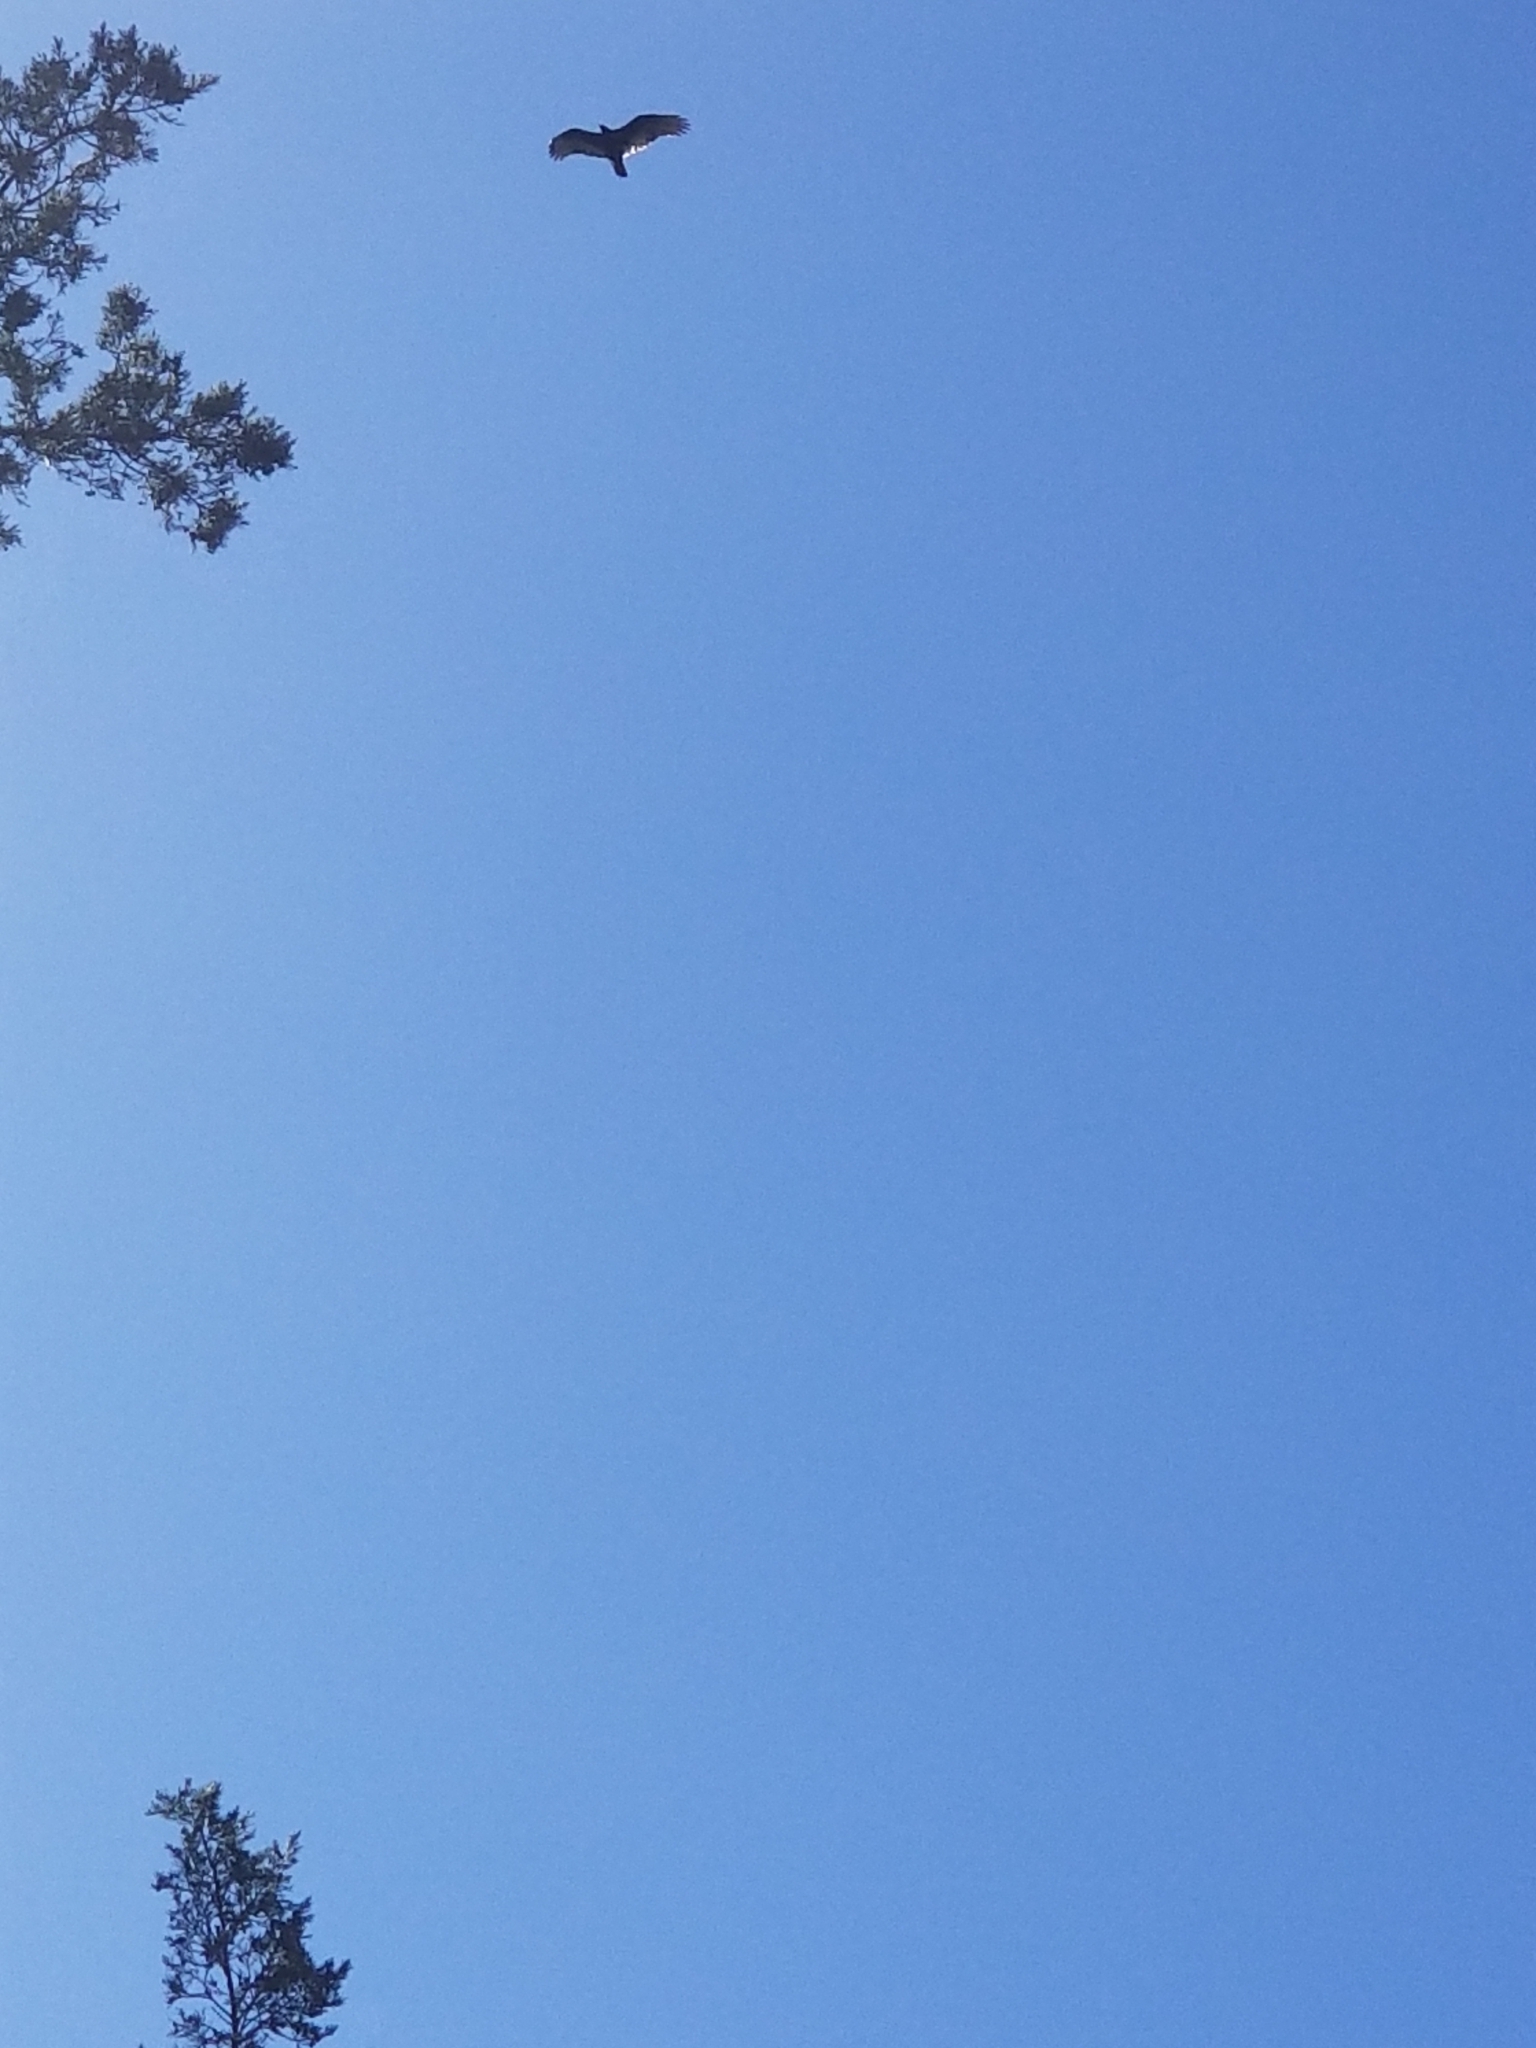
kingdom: Animalia
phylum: Chordata
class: Aves
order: Accipitriformes
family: Cathartidae
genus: Cathartes
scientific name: Cathartes aura
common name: Turkey vulture
